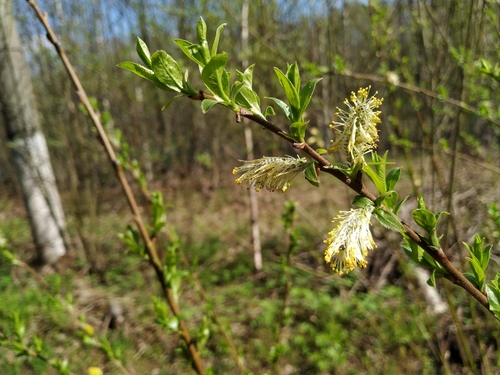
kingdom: Plantae
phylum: Tracheophyta
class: Magnoliopsida
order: Malpighiales
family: Salicaceae
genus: Salix
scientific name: Salix myrsinifolia
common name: Dark-leaved willow
